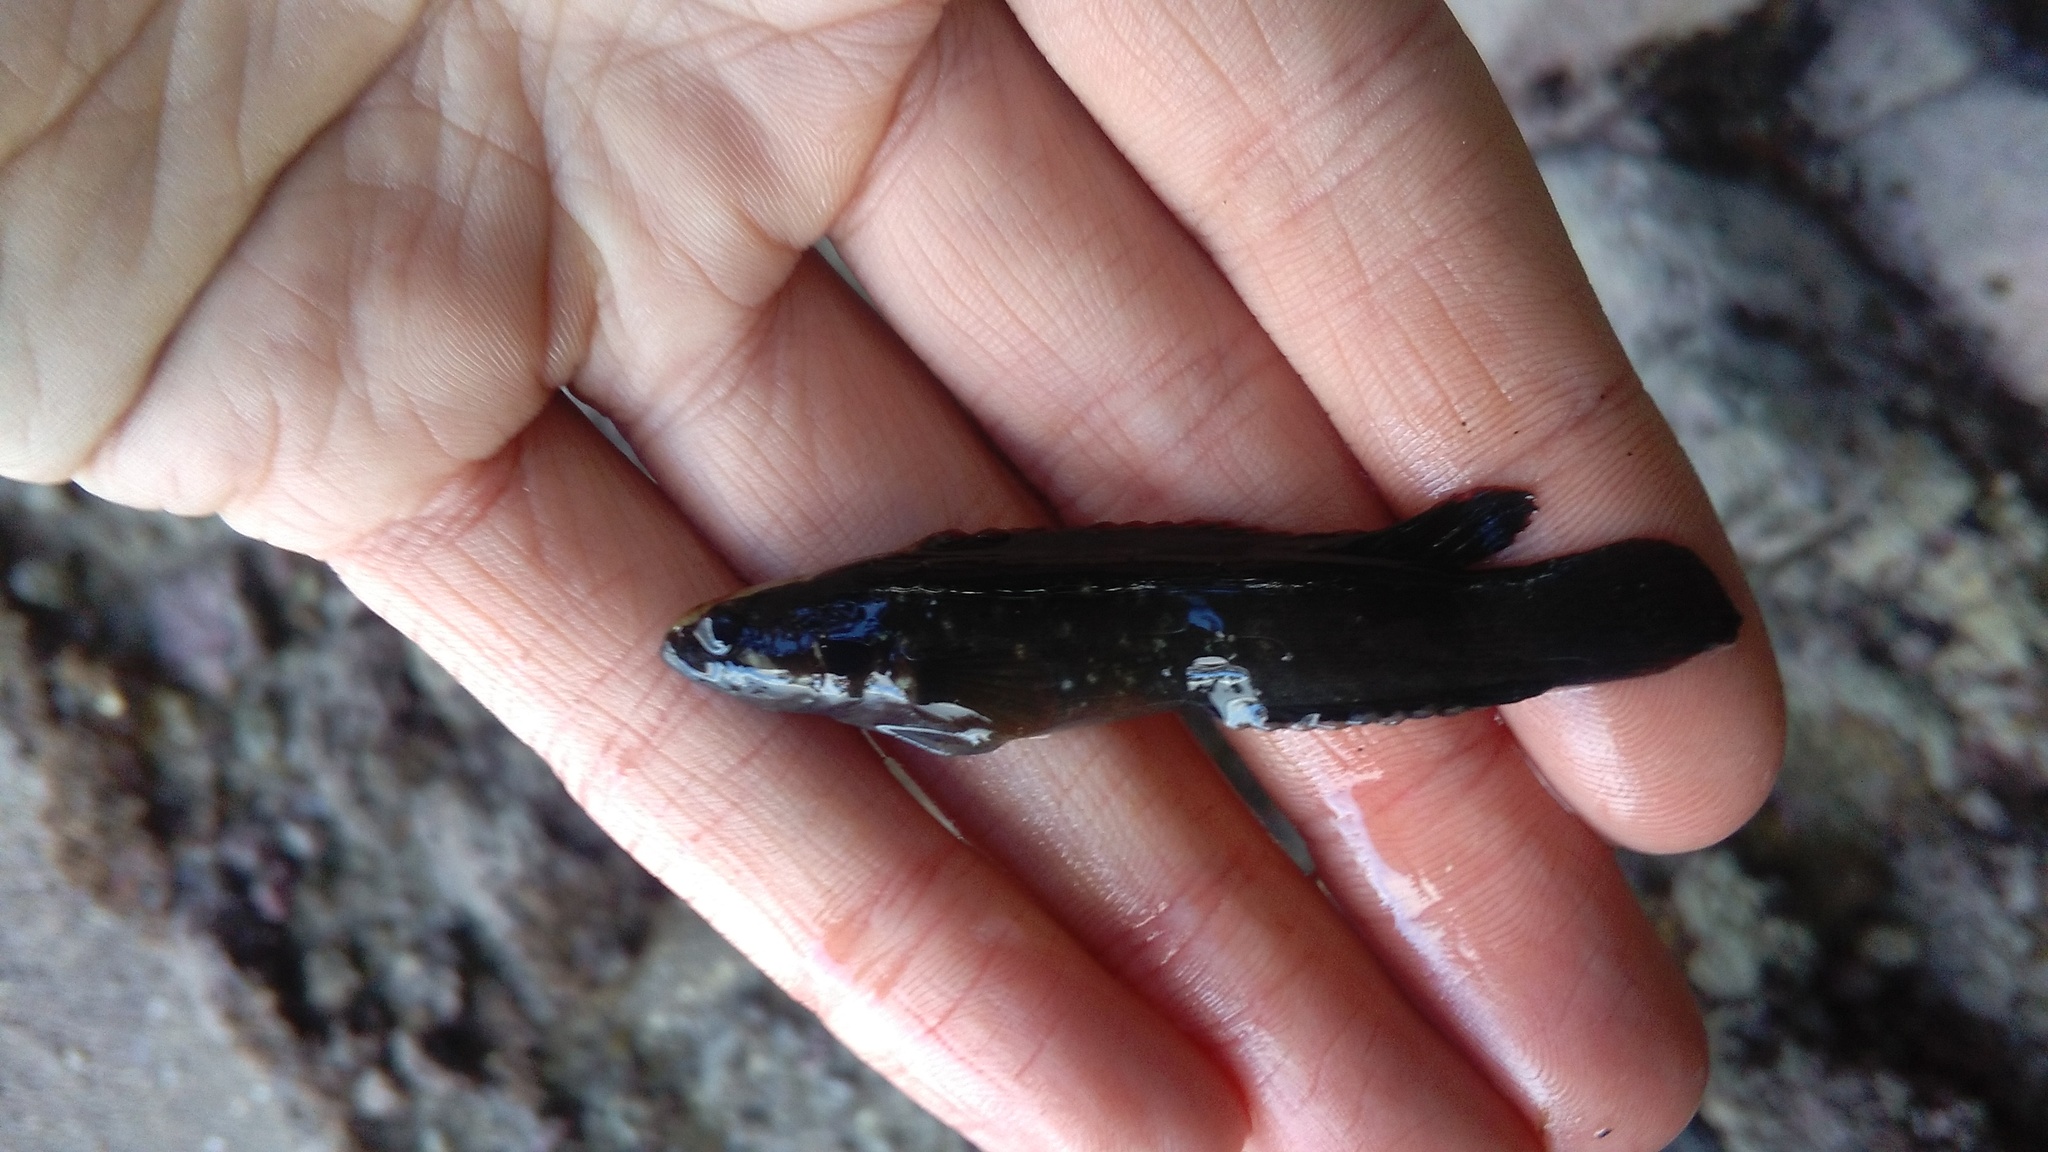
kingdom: Animalia
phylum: Chordata
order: Perciformes
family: Plesiopidae
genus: Acanthoclinus
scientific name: Acanthoclinus fuscus
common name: Olive rockfish
